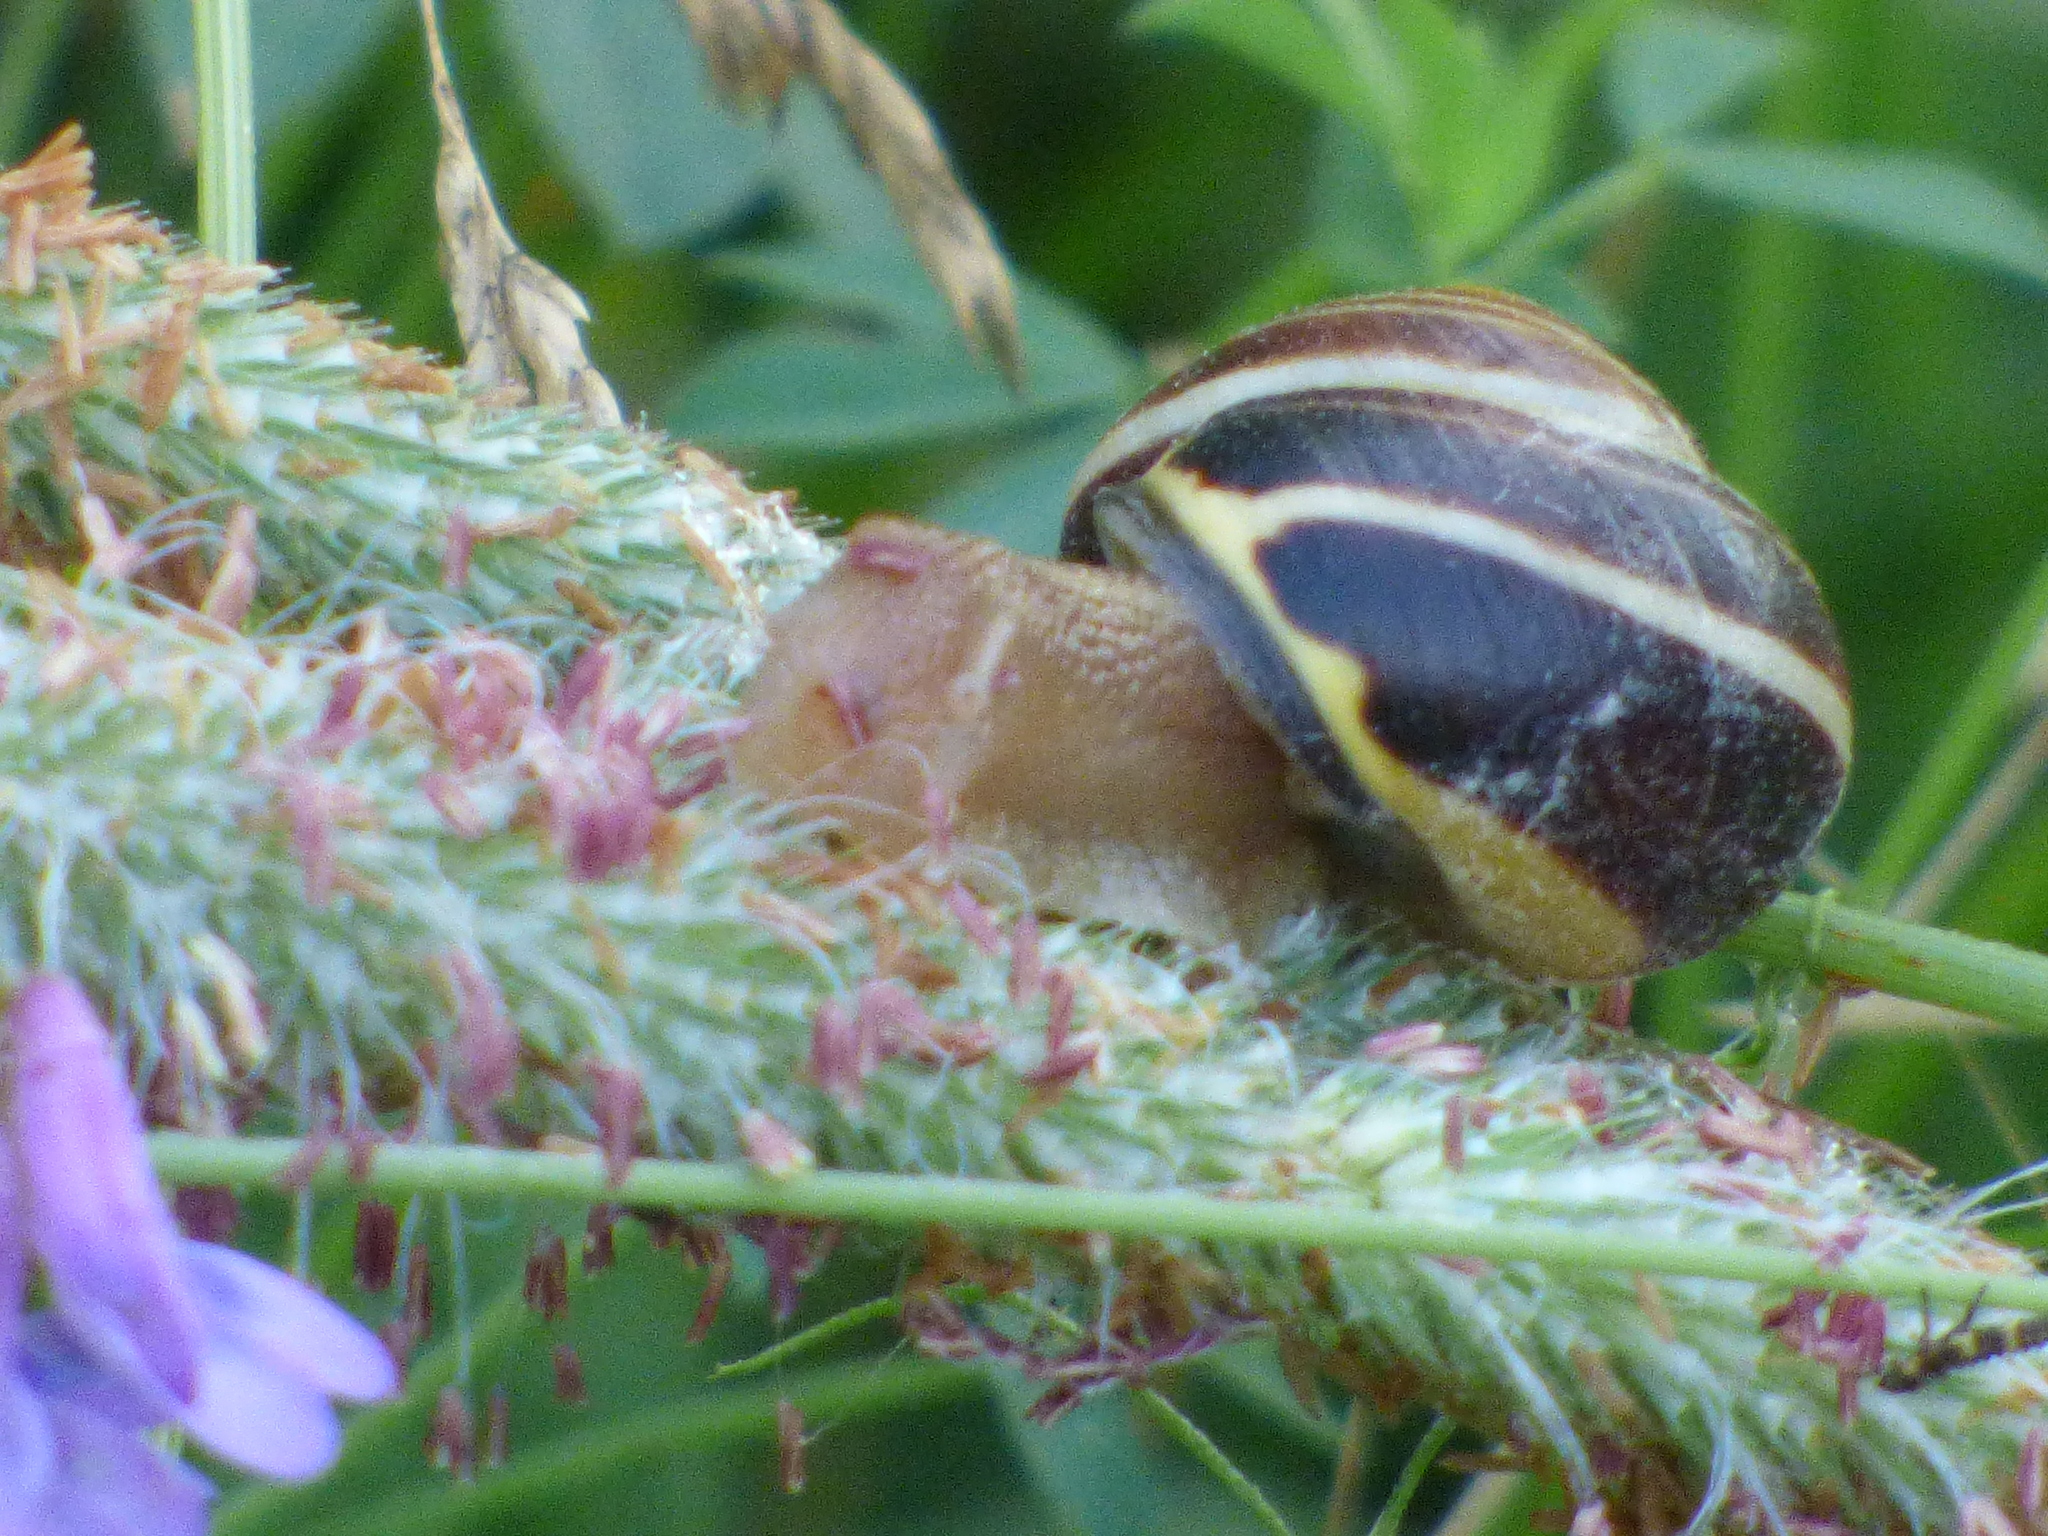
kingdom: Animalia
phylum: Mollusca
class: Gastropoda
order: Stylommatophora
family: Helicidae
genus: Cepaea
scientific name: Cepaea nemoralis
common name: Grovesnail
